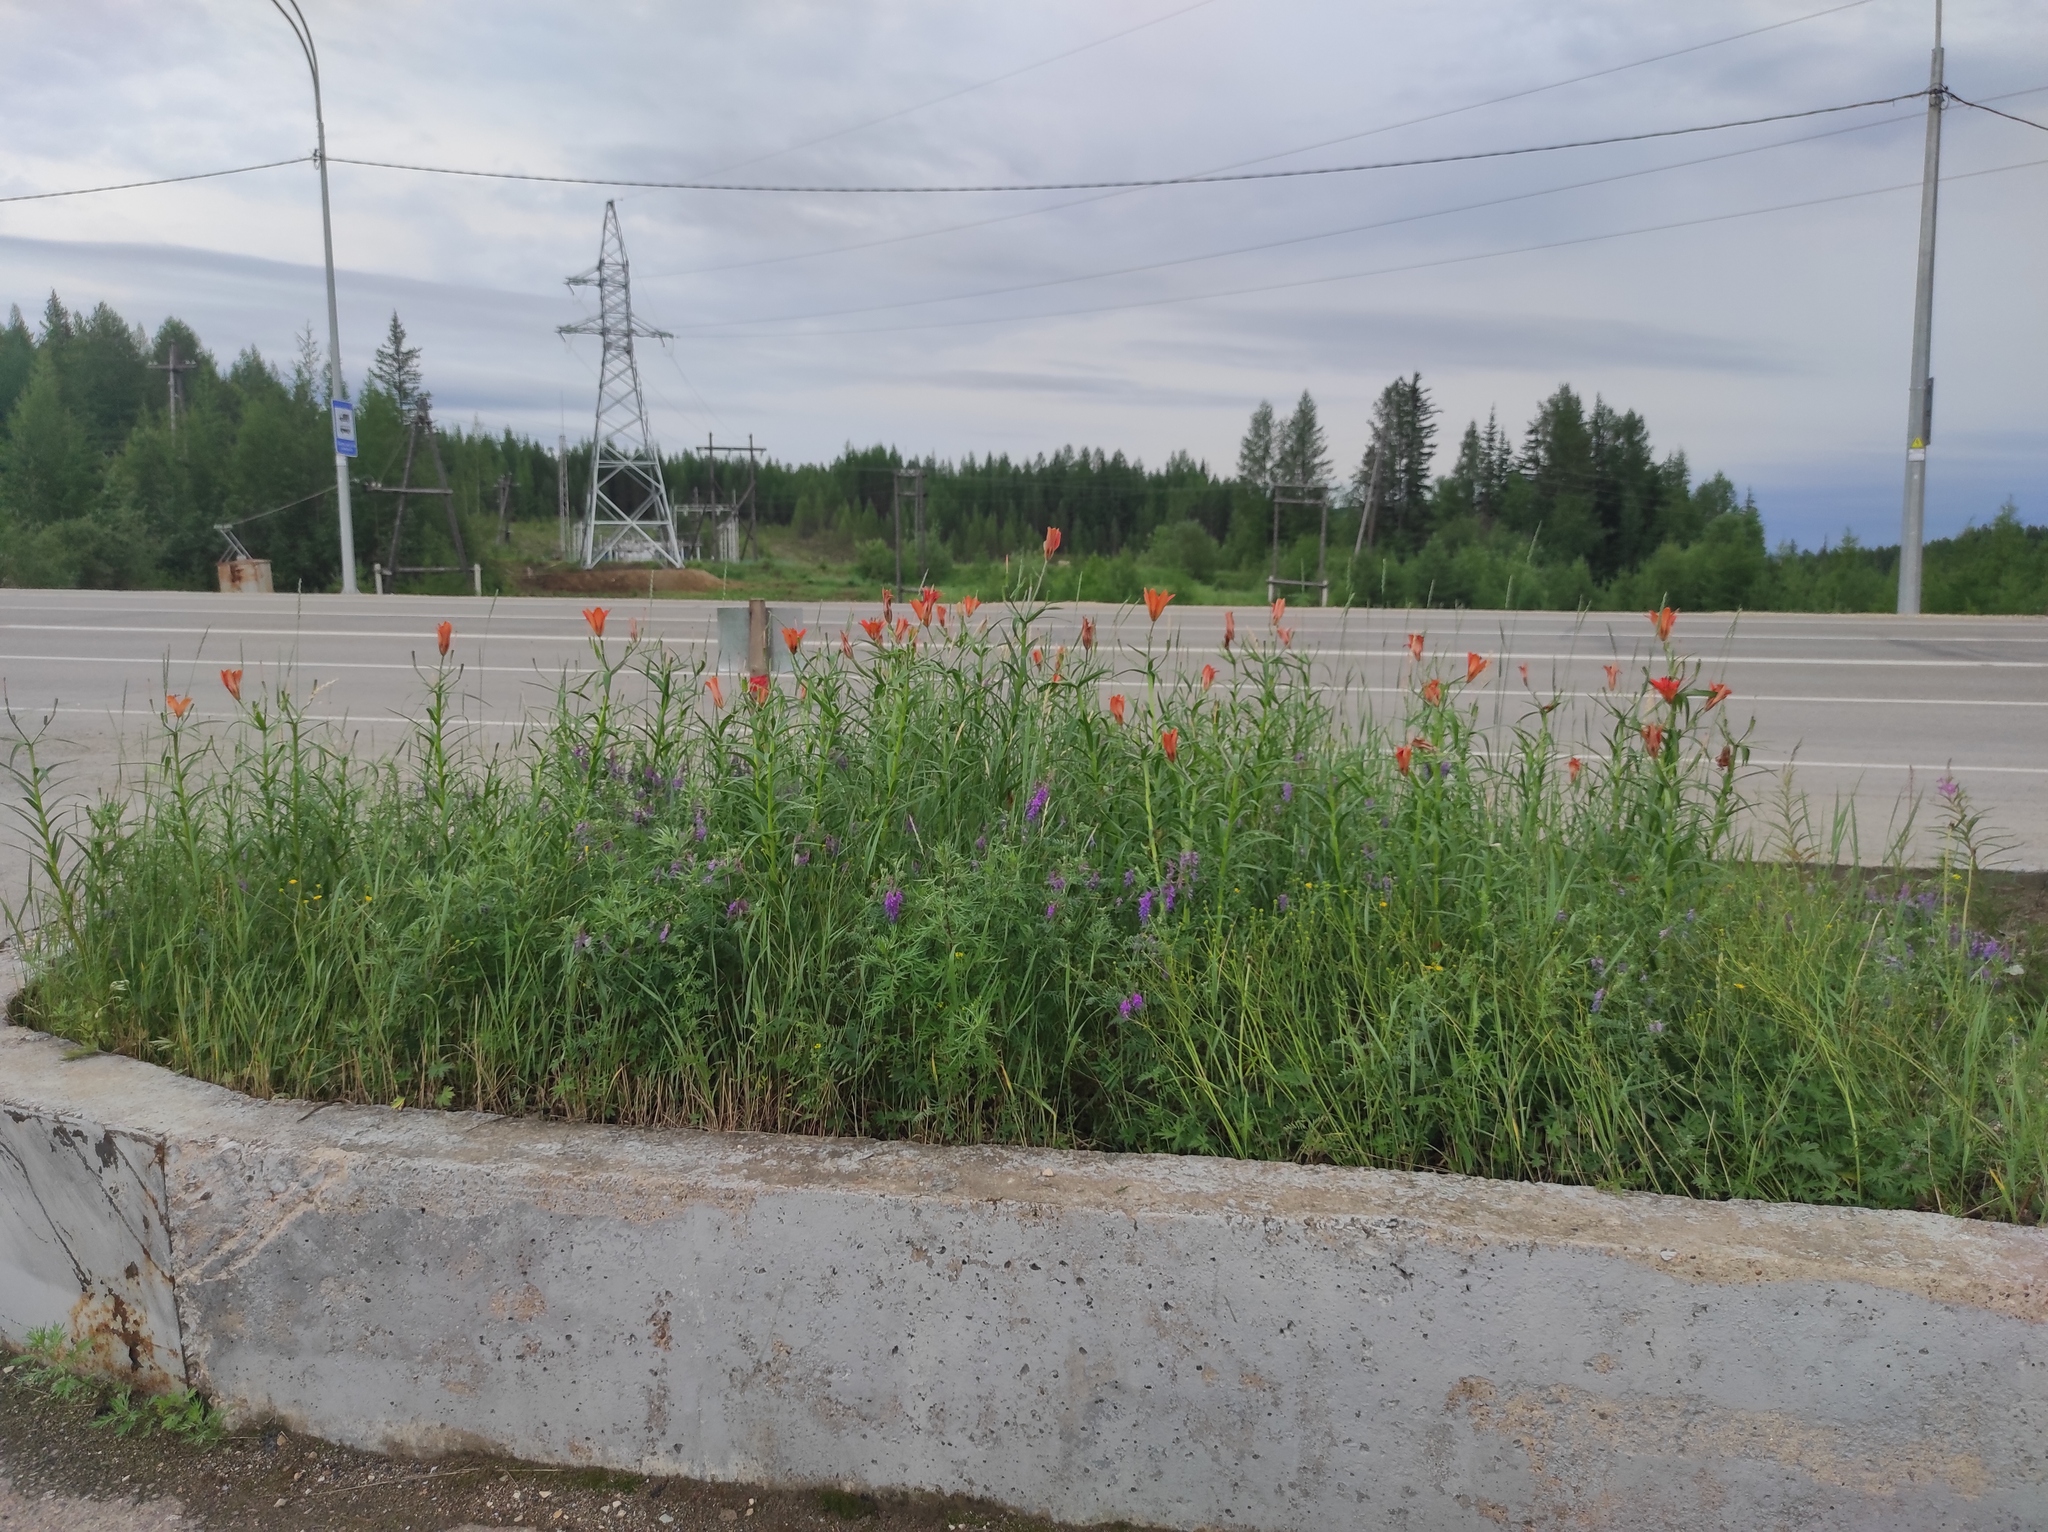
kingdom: Plantae
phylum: Tracheophyta
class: Liliopsida
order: Liliales
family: Liliaceae
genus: Lilium
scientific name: Lilium pensylvanicum
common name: Candlestick lily
